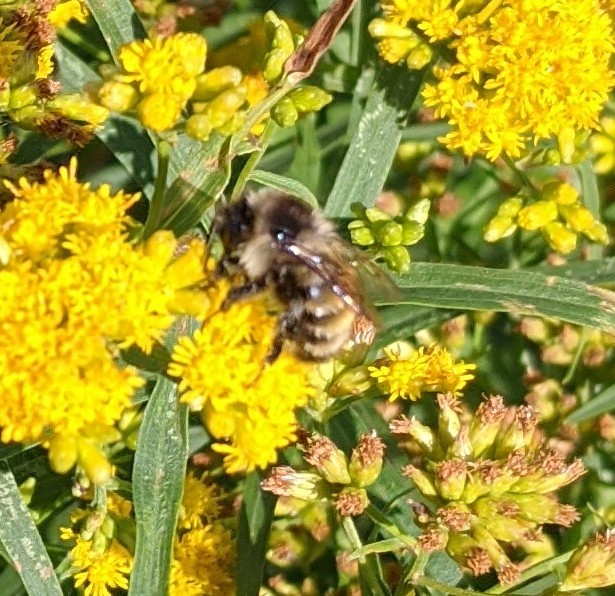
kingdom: Animalia
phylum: Arthropoda
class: Insecta
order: Hymenoptera
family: Apidae
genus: Bombus
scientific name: Bombus ternarius
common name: Tri-colored bumble bee
